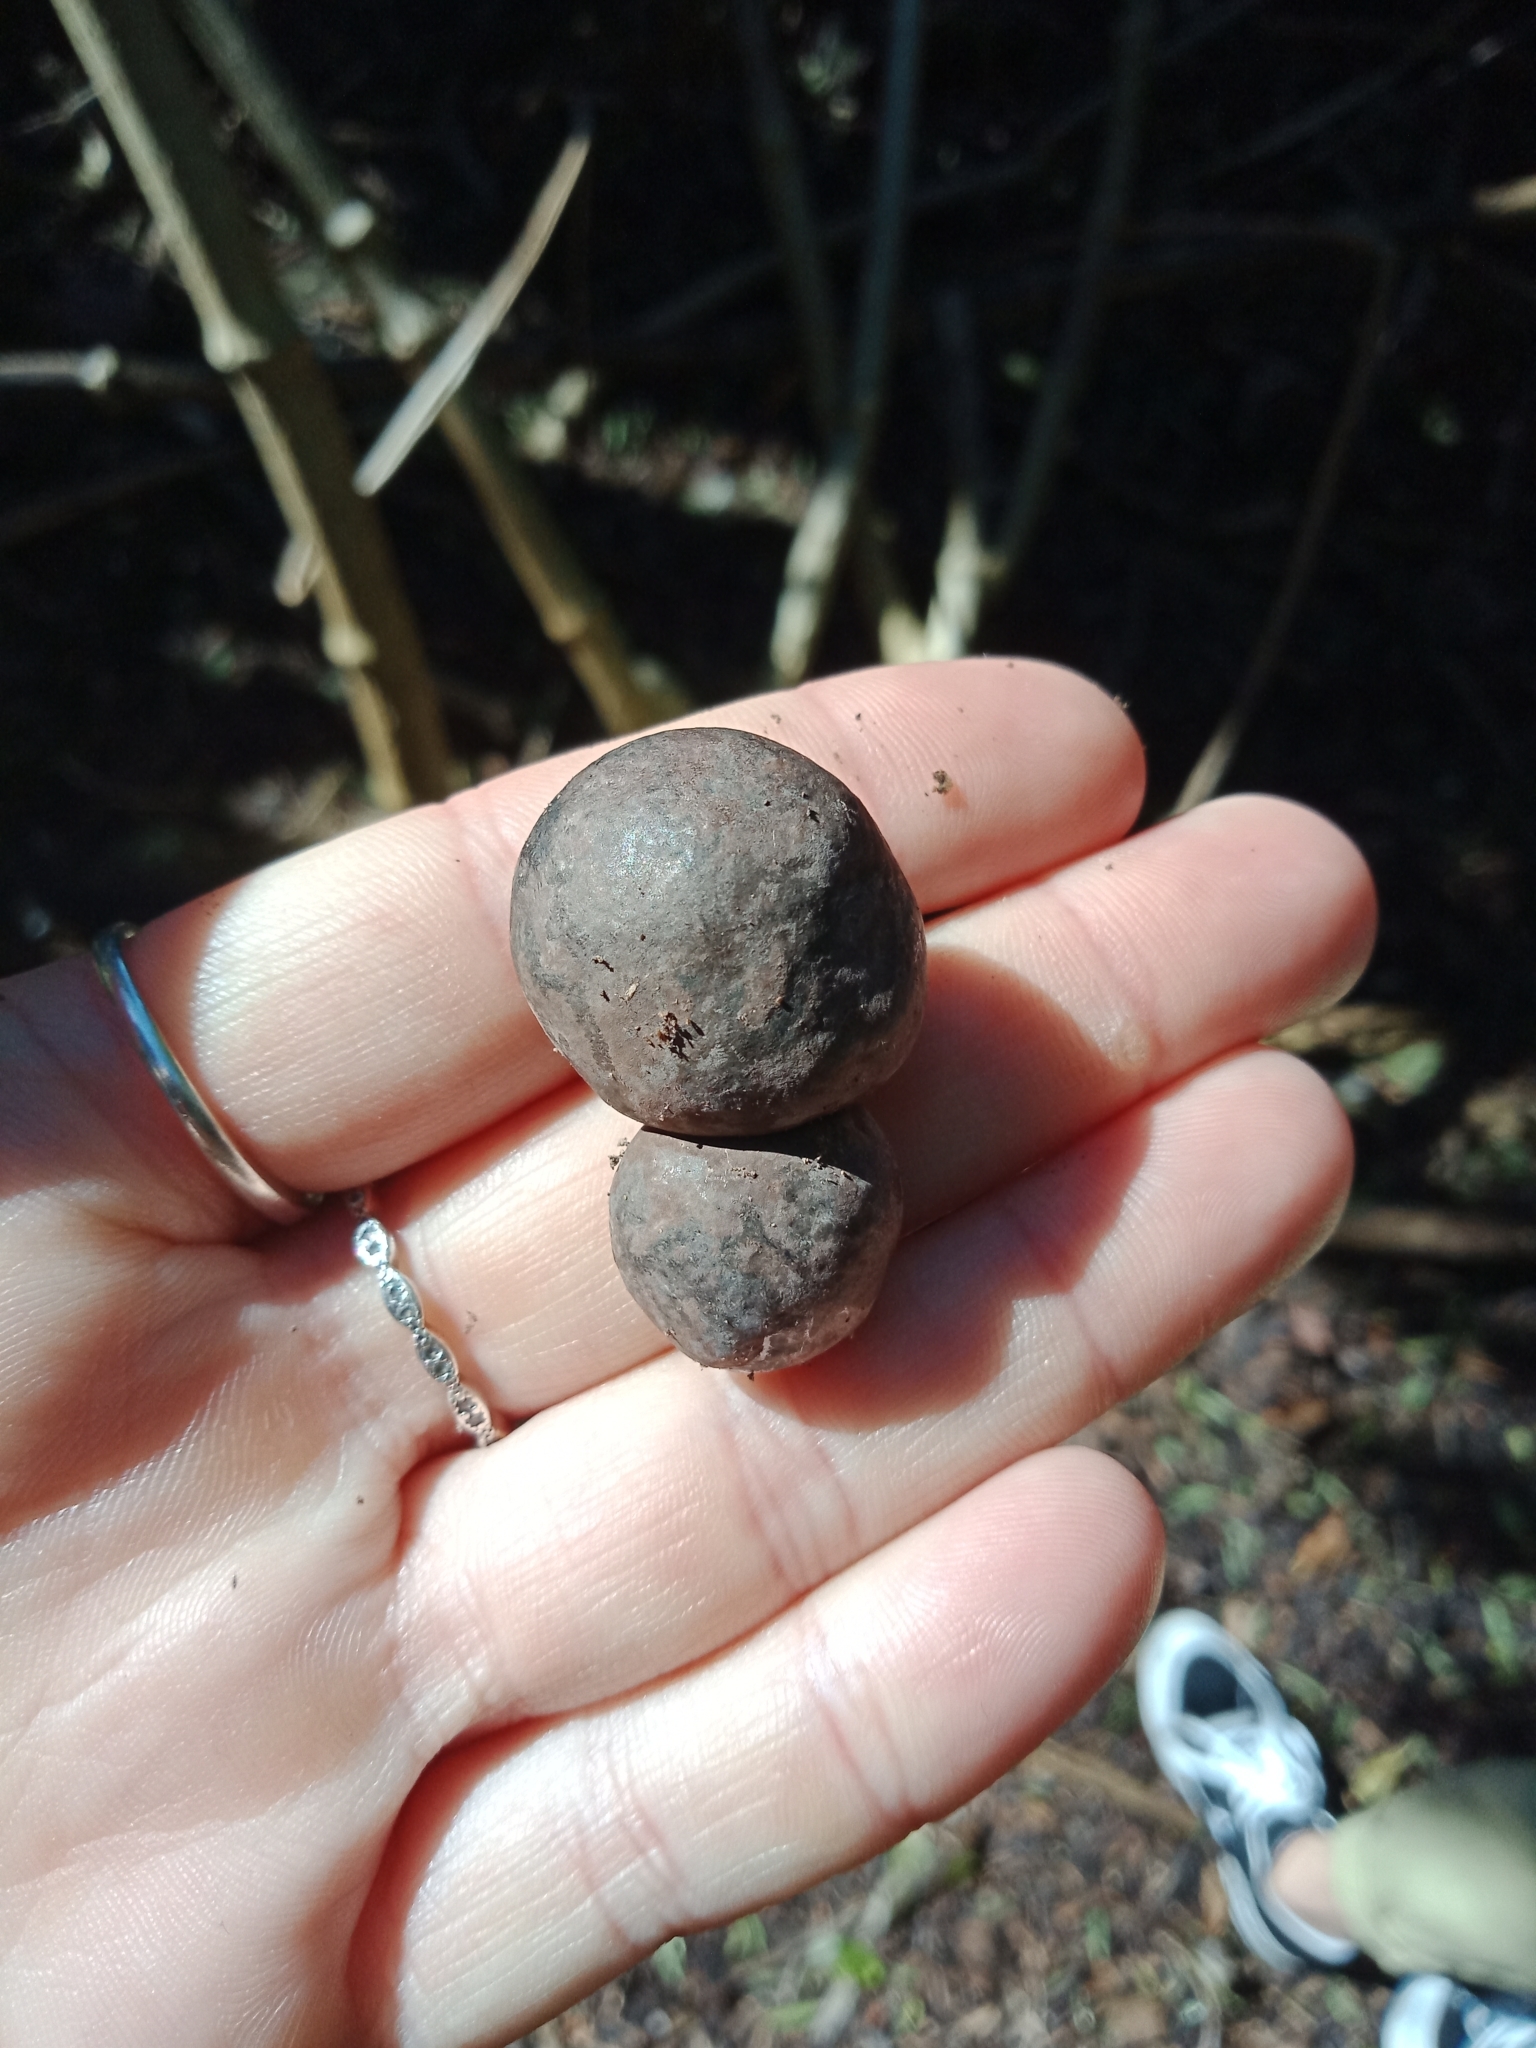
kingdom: Fungi
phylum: Ascomycota
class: Sordariomycetes
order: Xylariales
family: Hypoxylaceae
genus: Daldinia
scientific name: Daldinia
